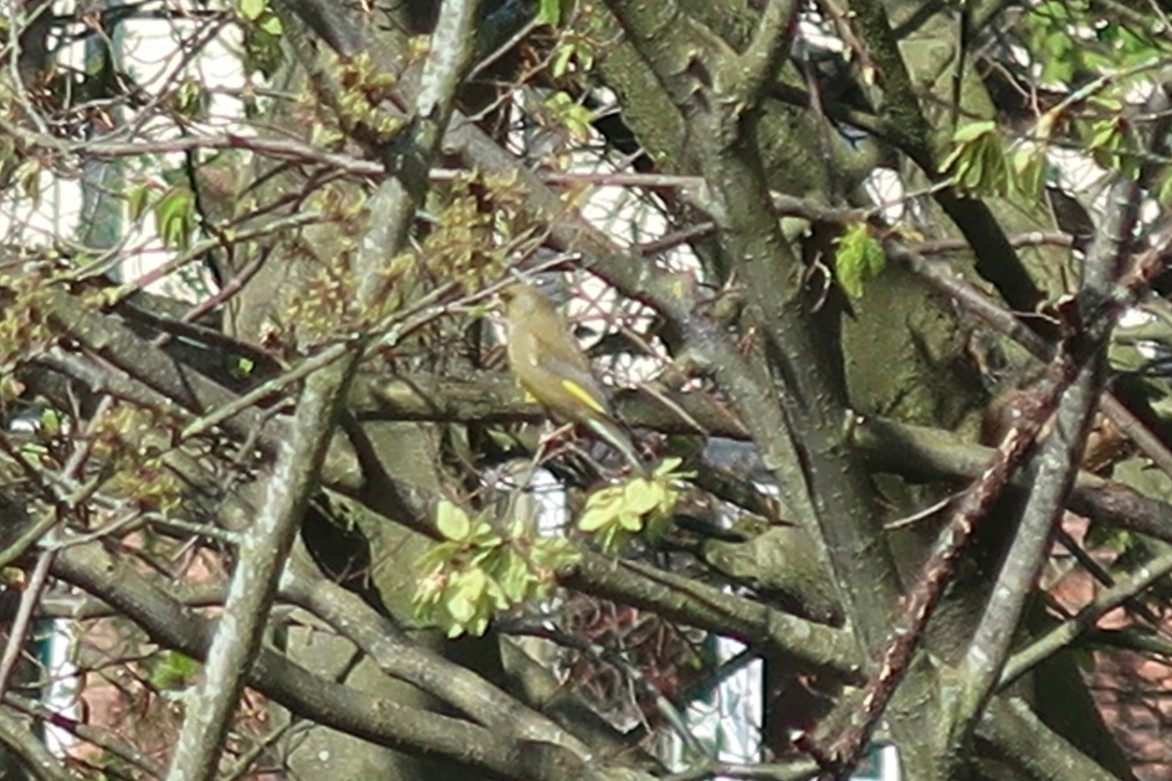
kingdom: Plantae
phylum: Tracheophyta
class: Liliopsida
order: Poales
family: Poaceae
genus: Chloris
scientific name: Chloris chloris
